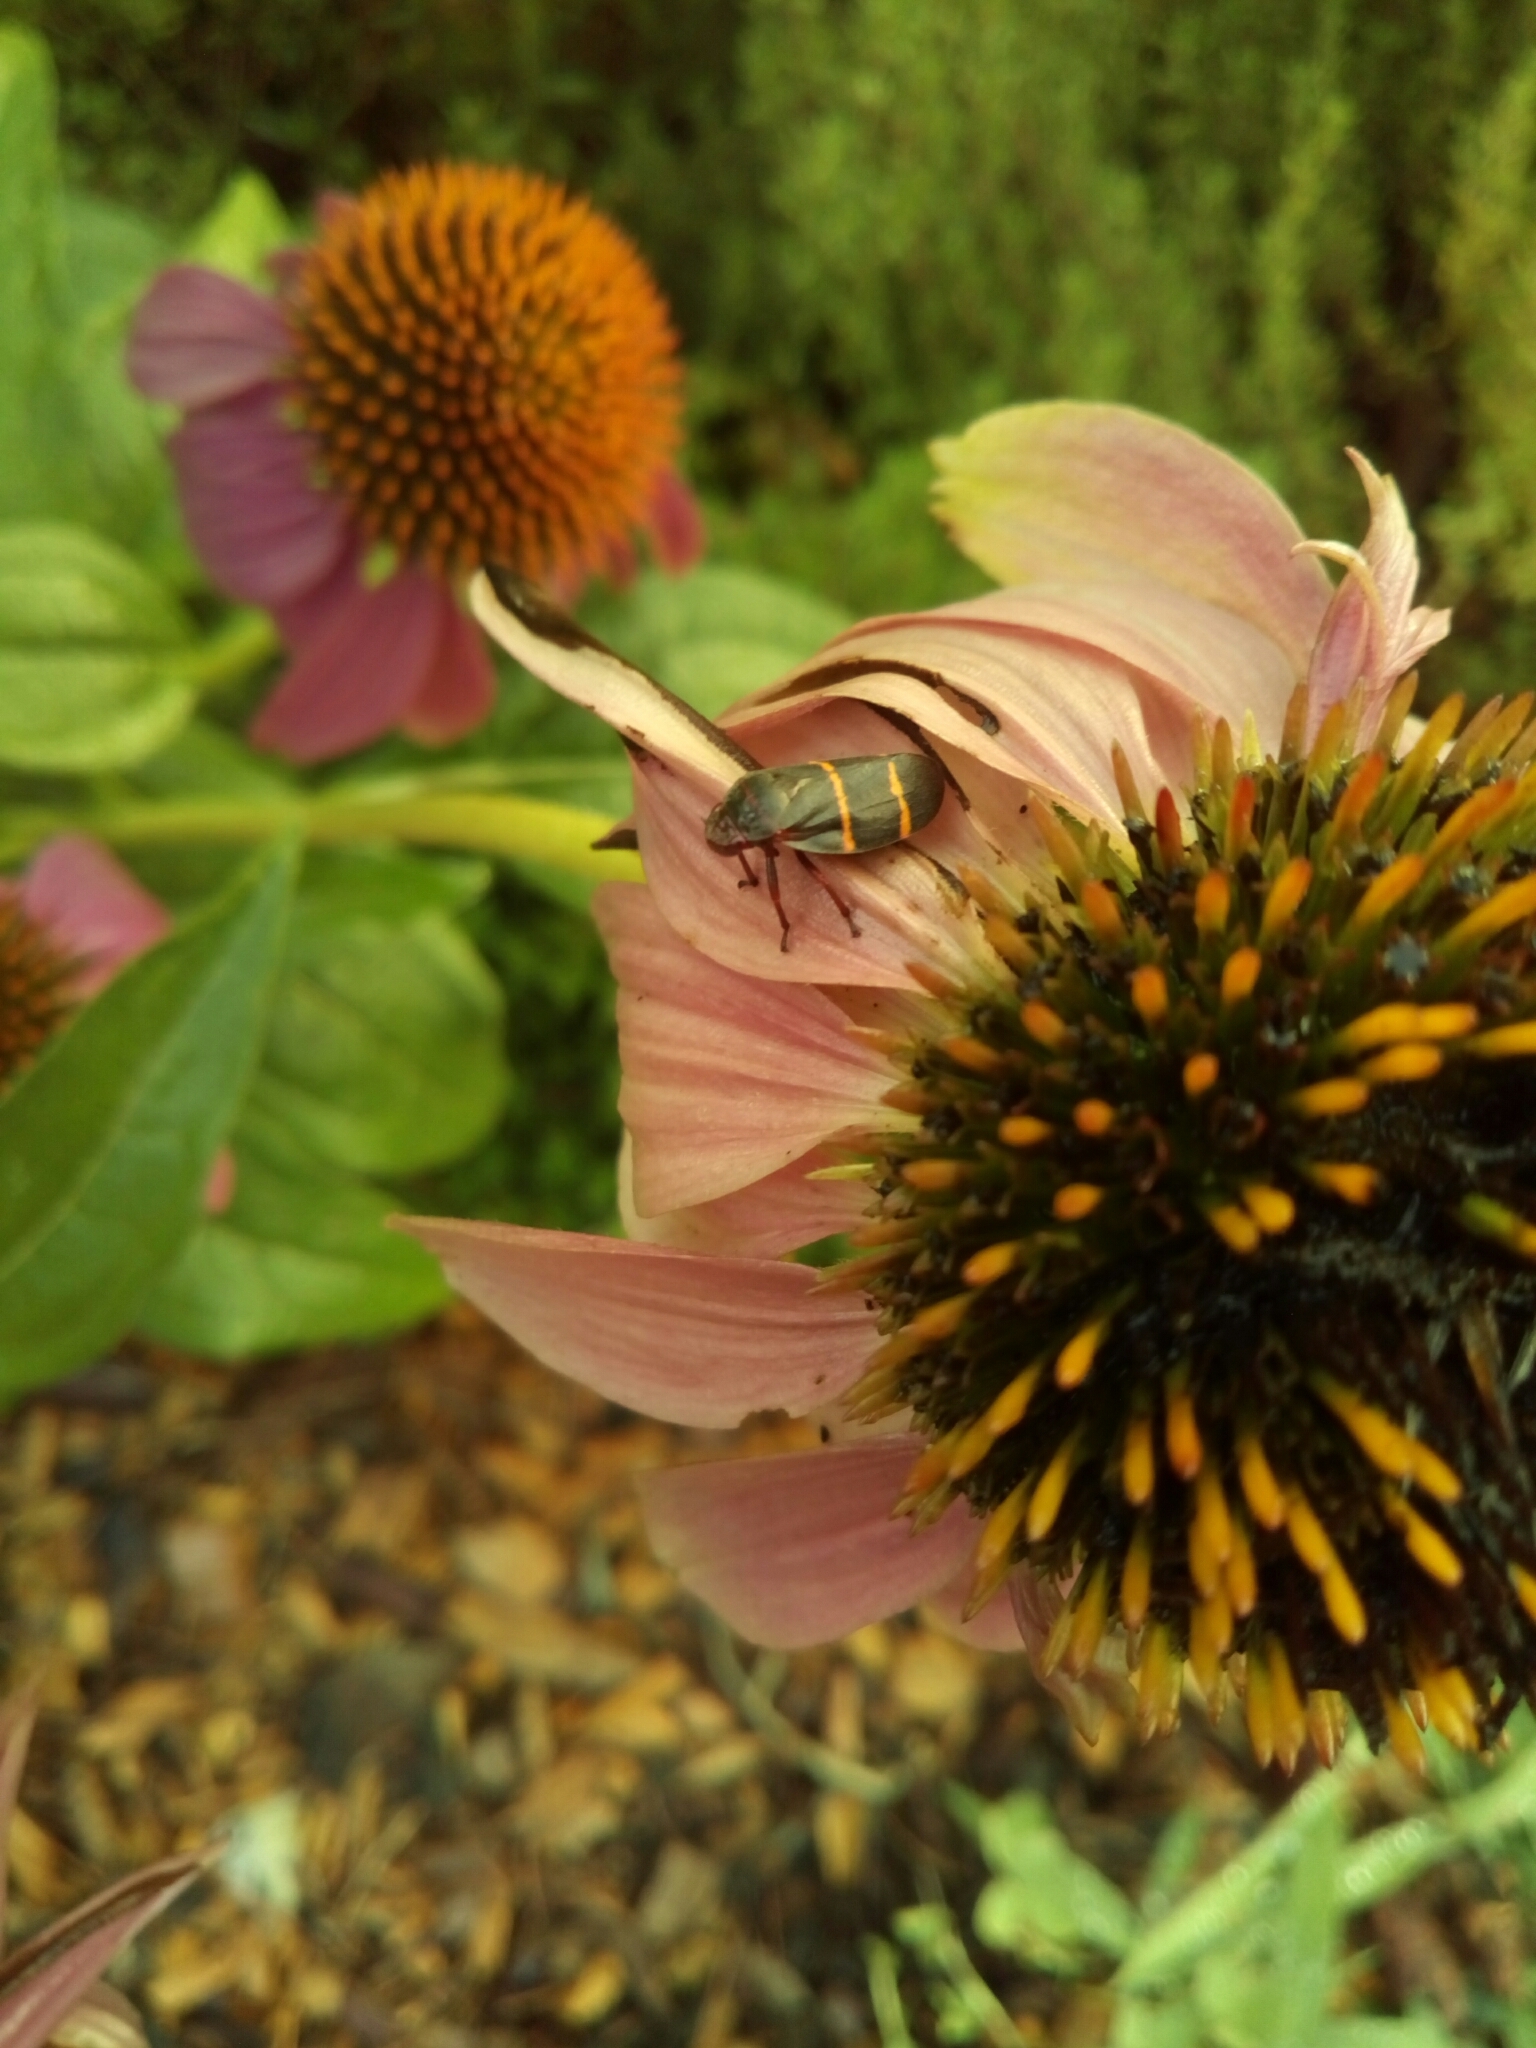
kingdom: Animalia
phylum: Arthropoda
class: Insecta
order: Hemiptera
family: Cercopidae
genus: Prosapia
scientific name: Prosapia bicincta
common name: Twolined spittlebug
